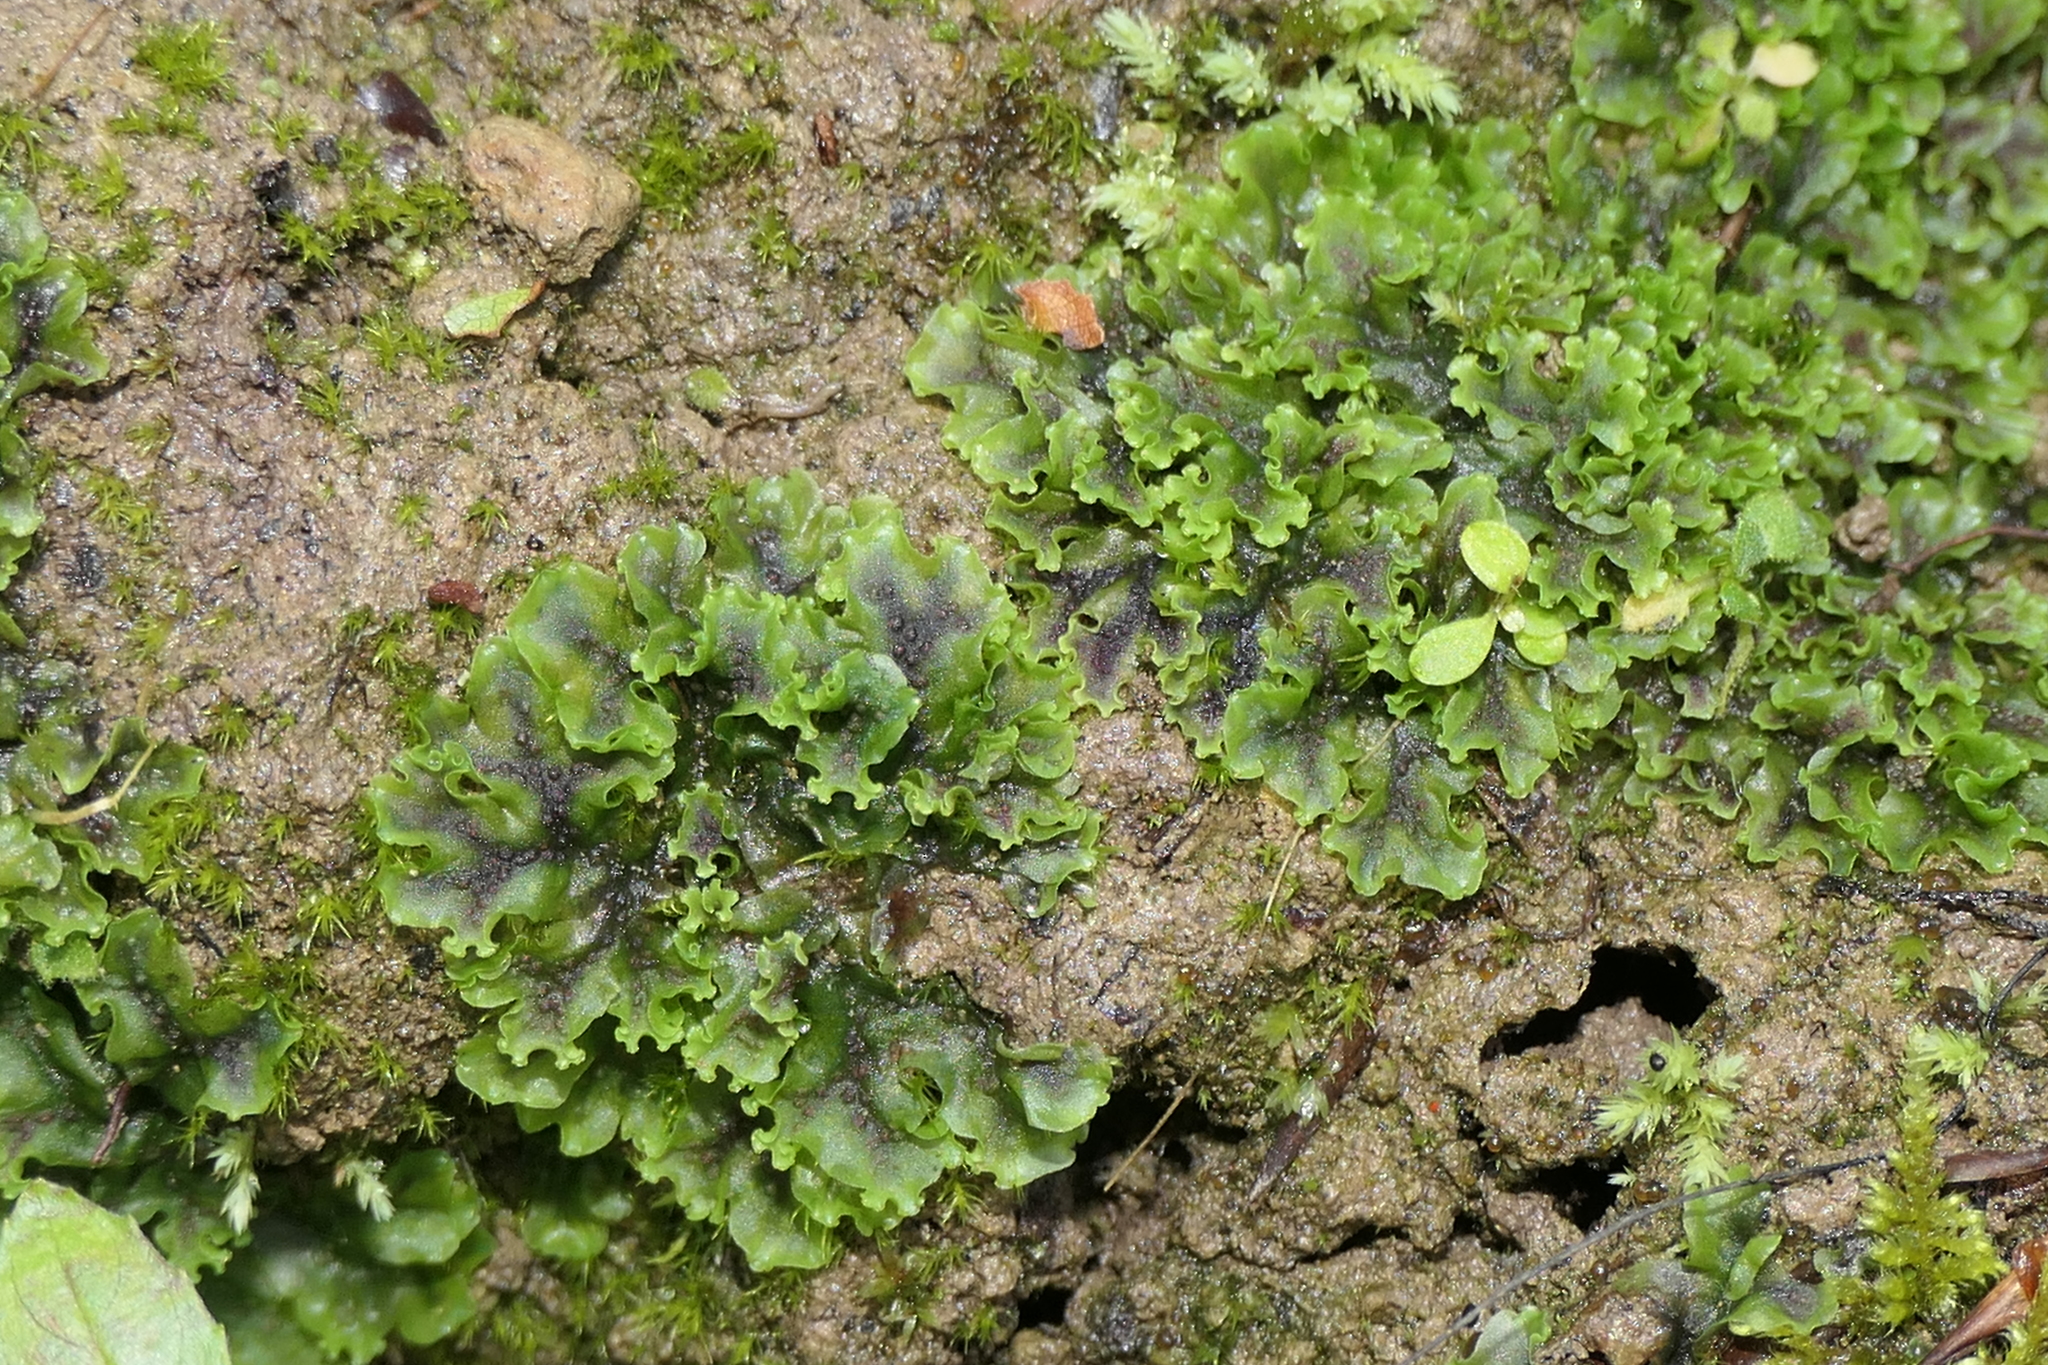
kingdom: Plantae
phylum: Marchantiophyta
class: Jungermanniopsida
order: Pelliales
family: Pelliaceae
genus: Apopellia
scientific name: Apopellia endiviifolia
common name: Endive pellia
